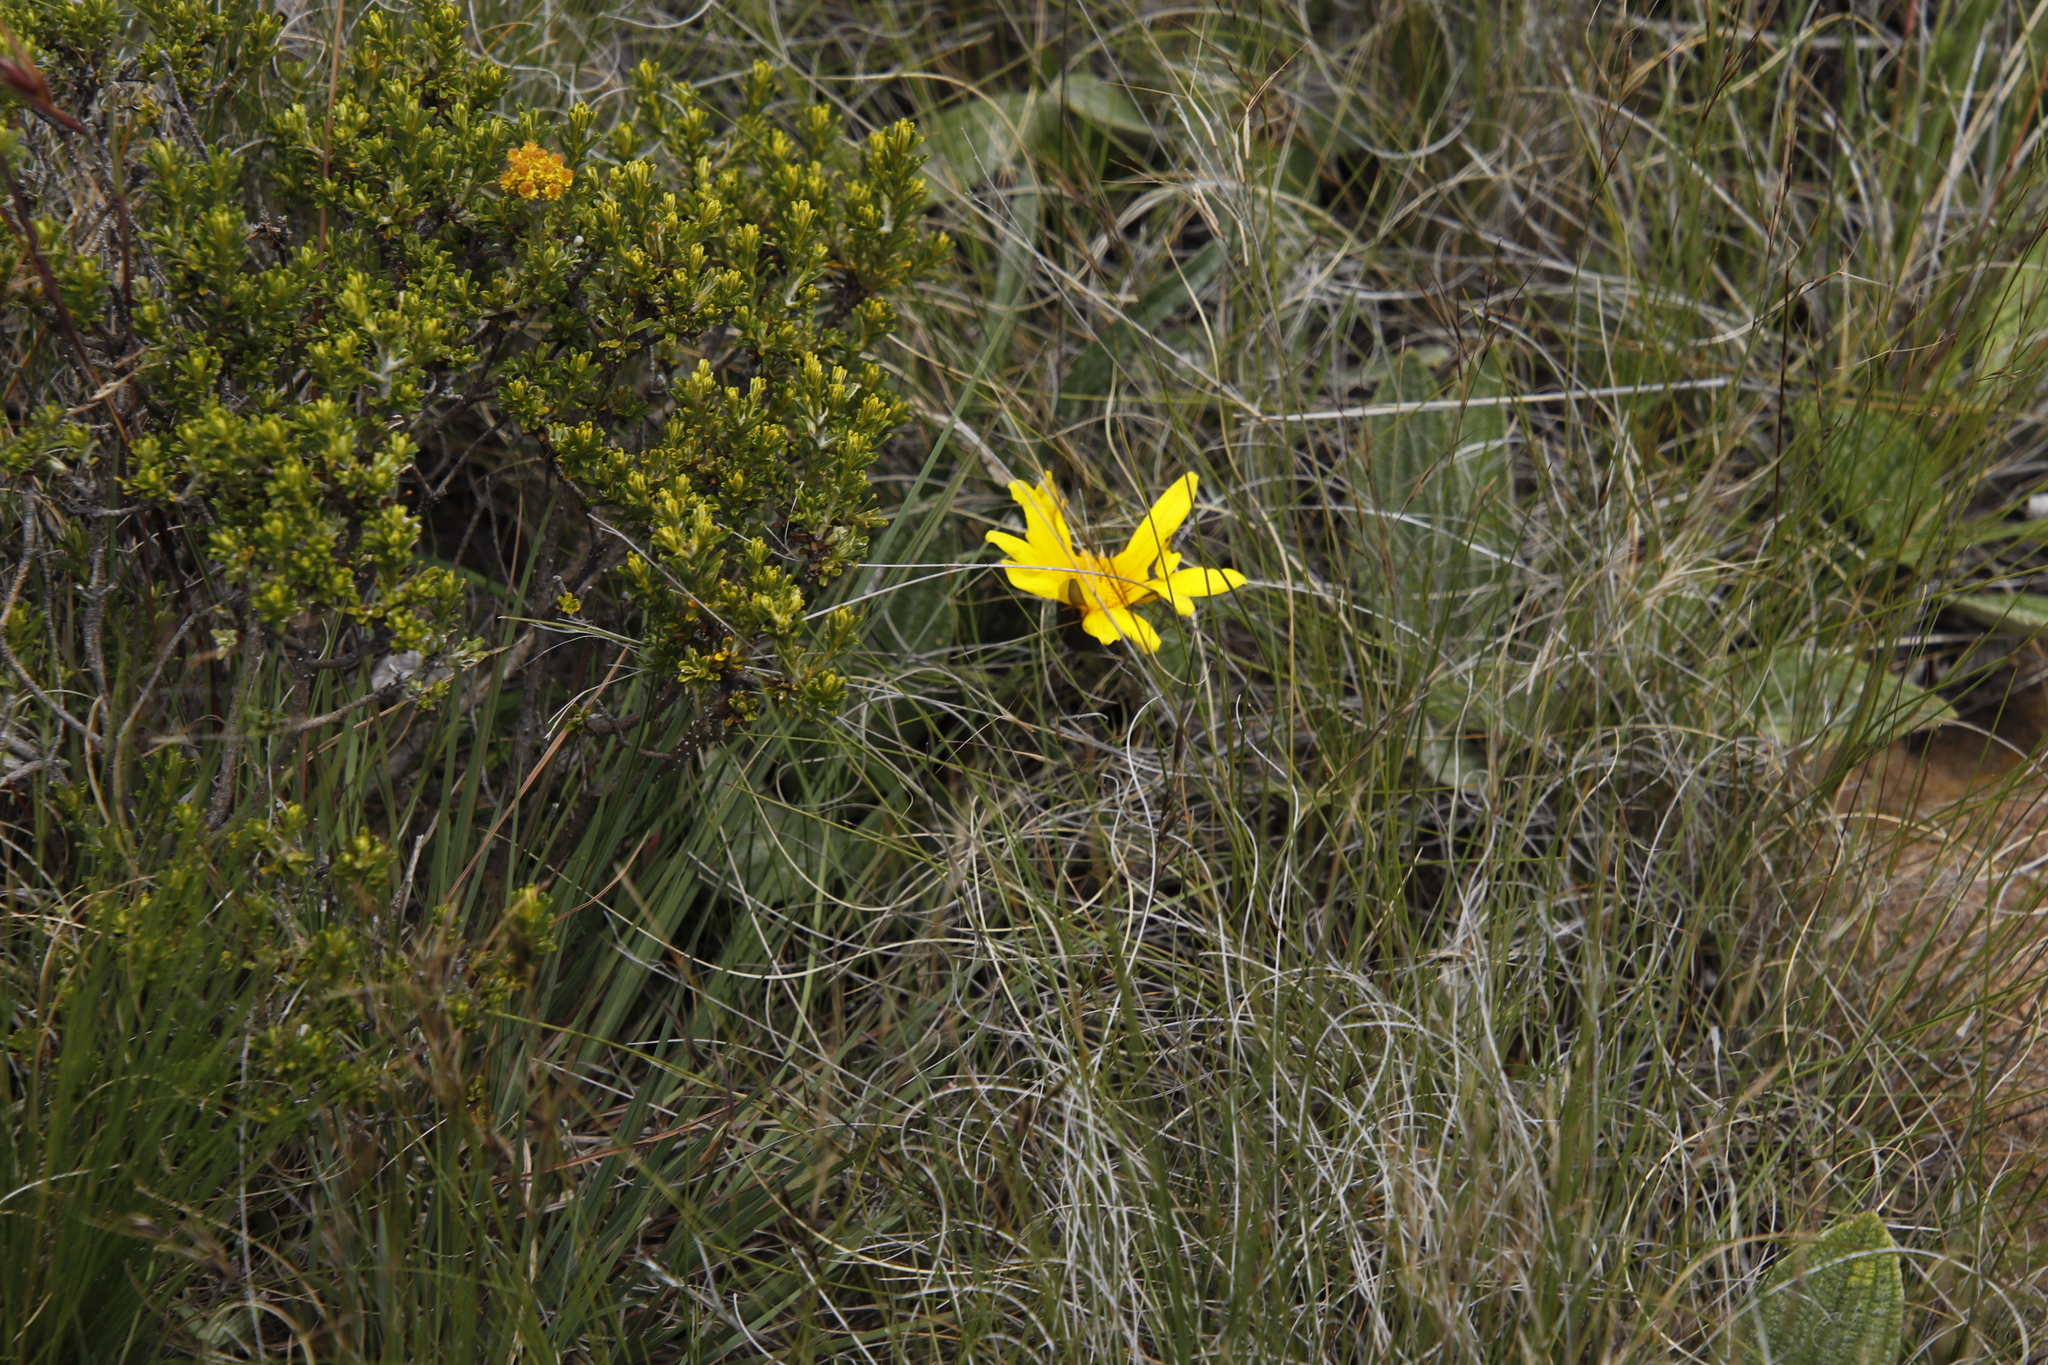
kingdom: Plantae
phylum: Tracheophyta
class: Magnoliopsida
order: Asterales
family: Asteraceae
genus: Gazania
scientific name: Gazania krebsiana
